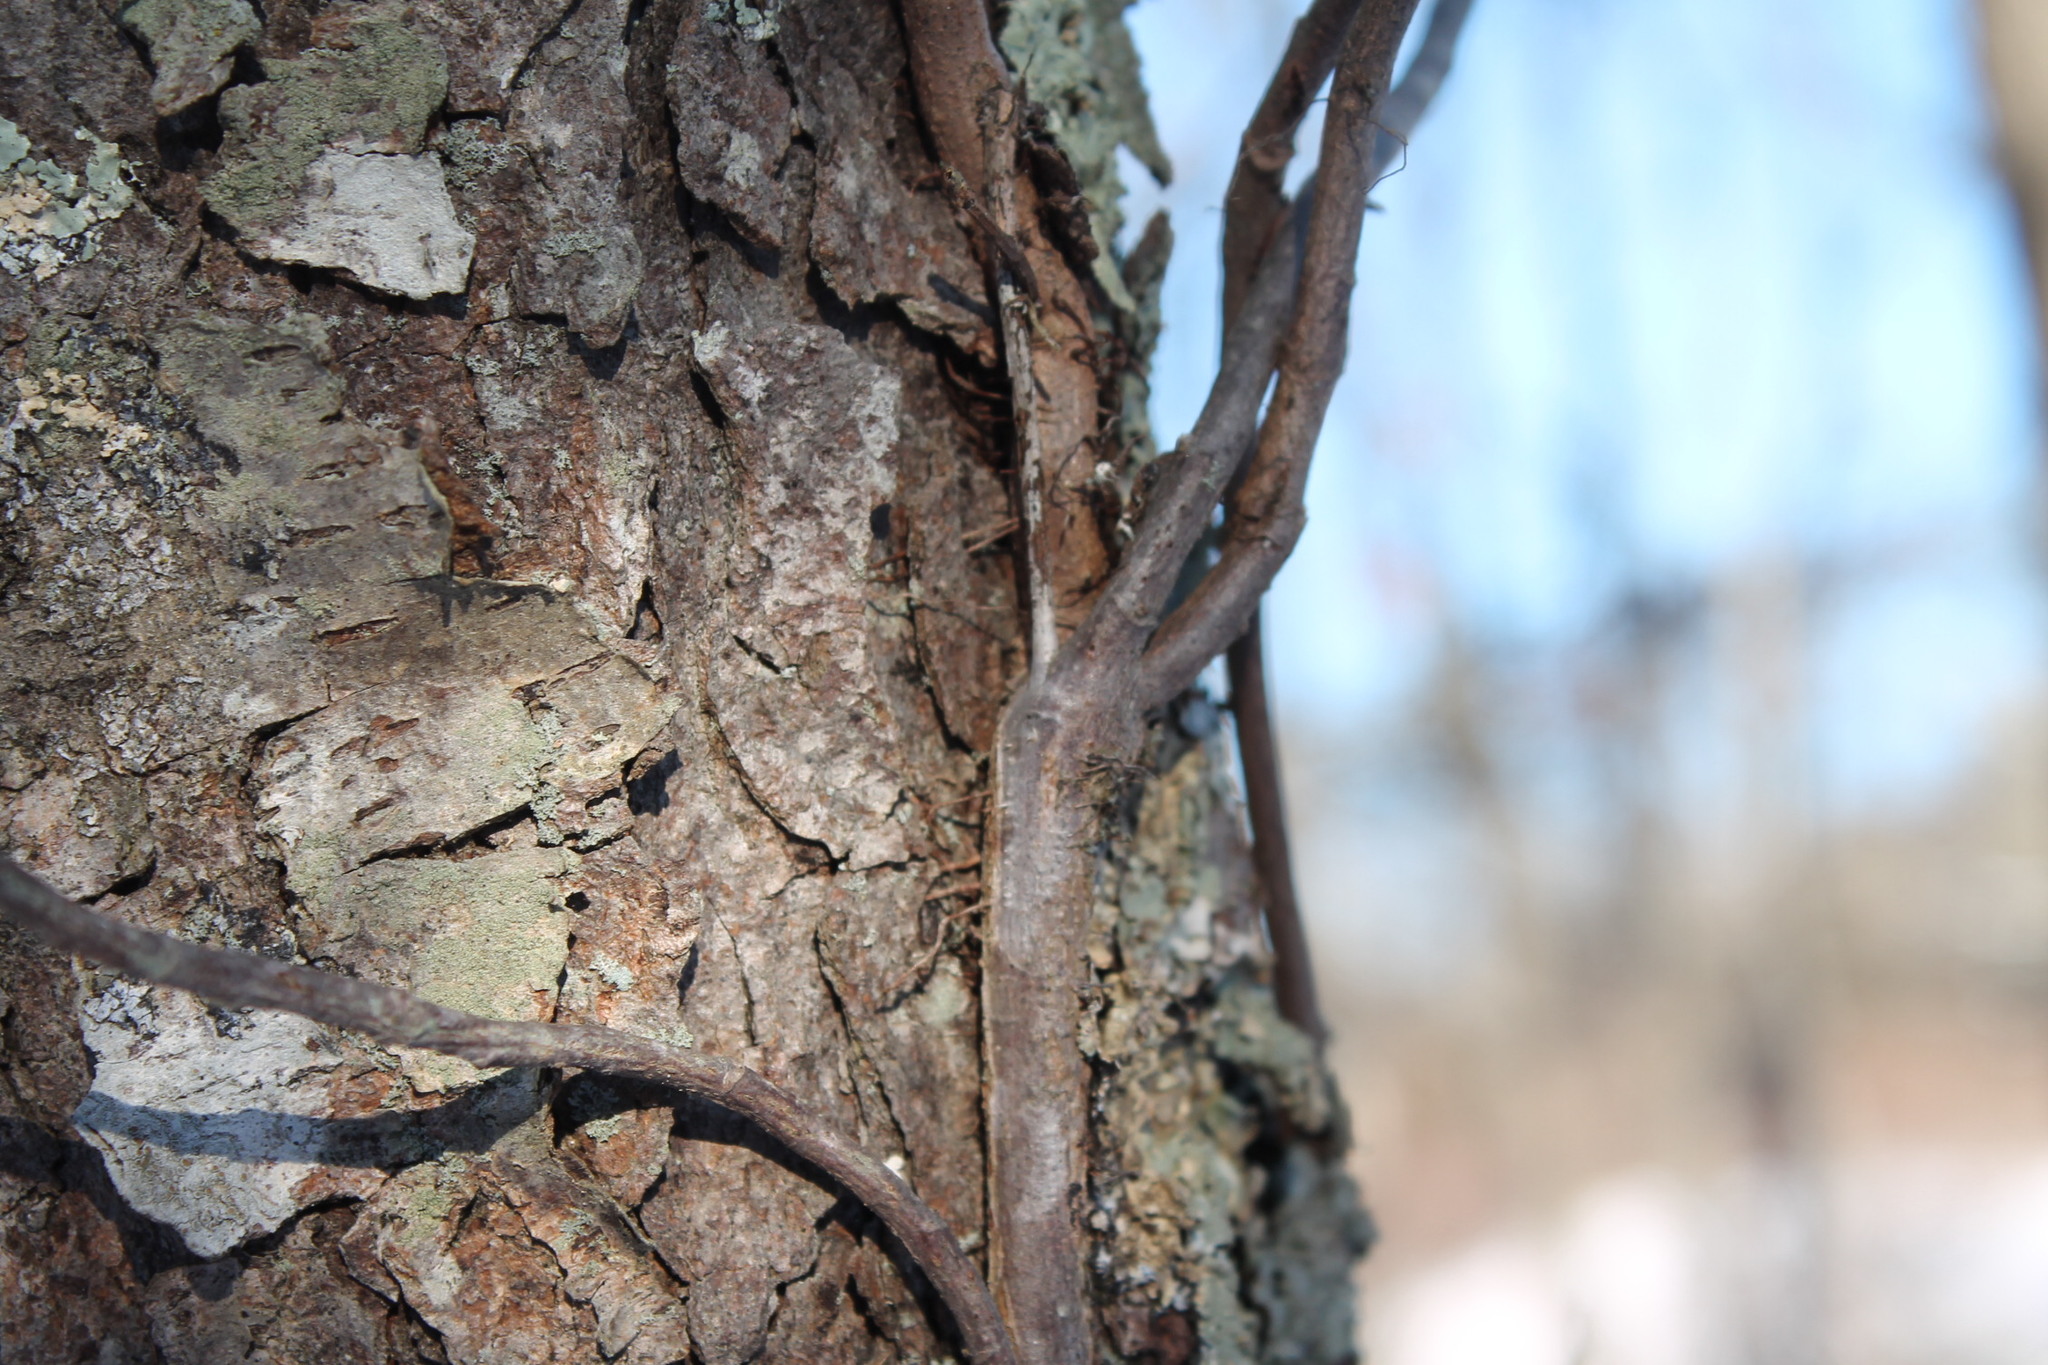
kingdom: Plantae
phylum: Tracheophyta
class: Magnoliopsida
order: Sapindales
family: Anacardiaceae
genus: Toxicodendron
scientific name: Toxicodendron radicans
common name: Poison ivy
